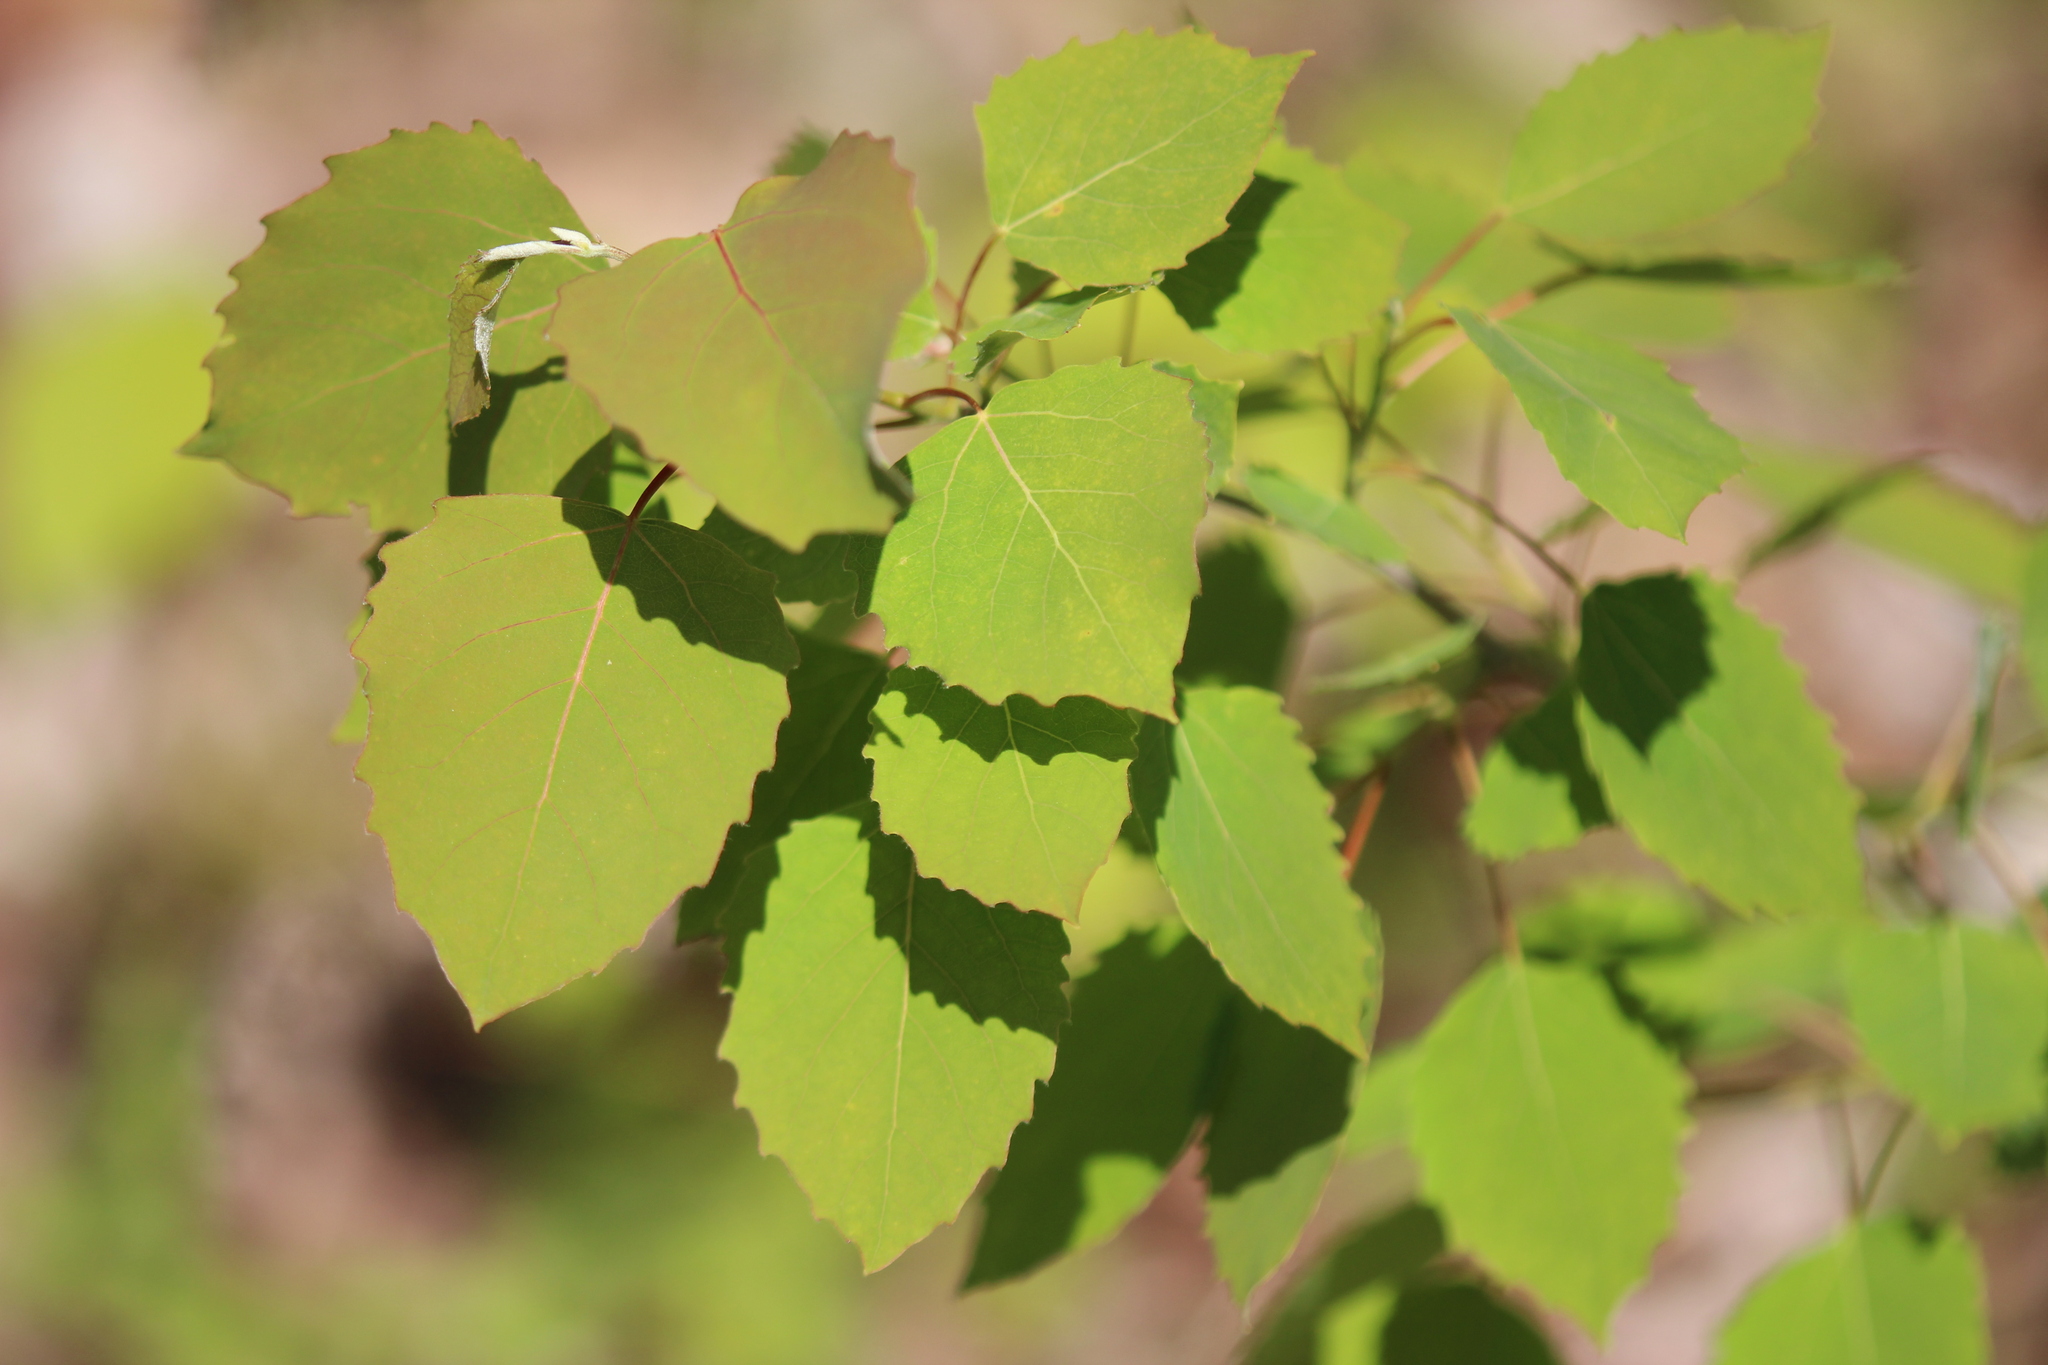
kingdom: Plantae
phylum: Tracheophyta
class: Magnoliopsida
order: Malpighiales
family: Salicaceae
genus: Populus
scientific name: Populus grandidentata
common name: Bigtooth aspen
